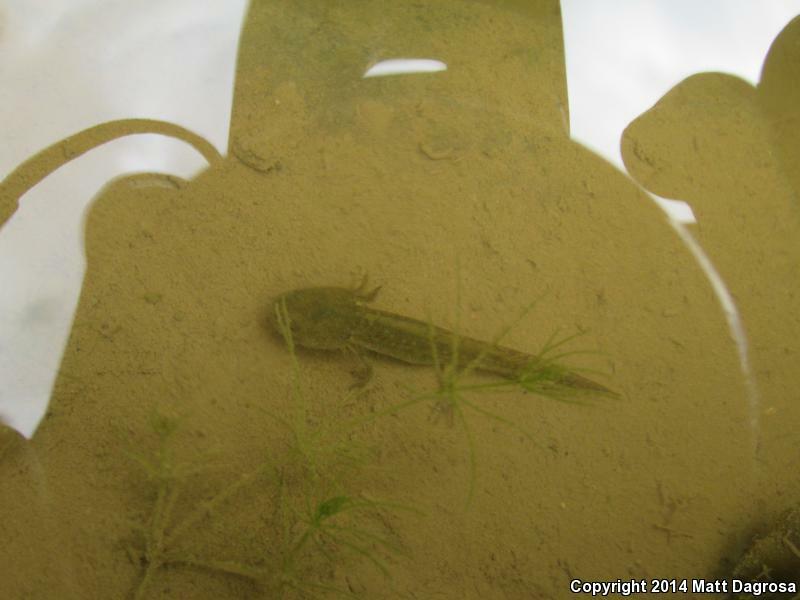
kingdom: Animalia
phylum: Chordata
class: Amphibia
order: Caudata
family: Ambystomatidae
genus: Ambystoma
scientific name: Ambystoma macrodactylum
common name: Long-toed salamander
